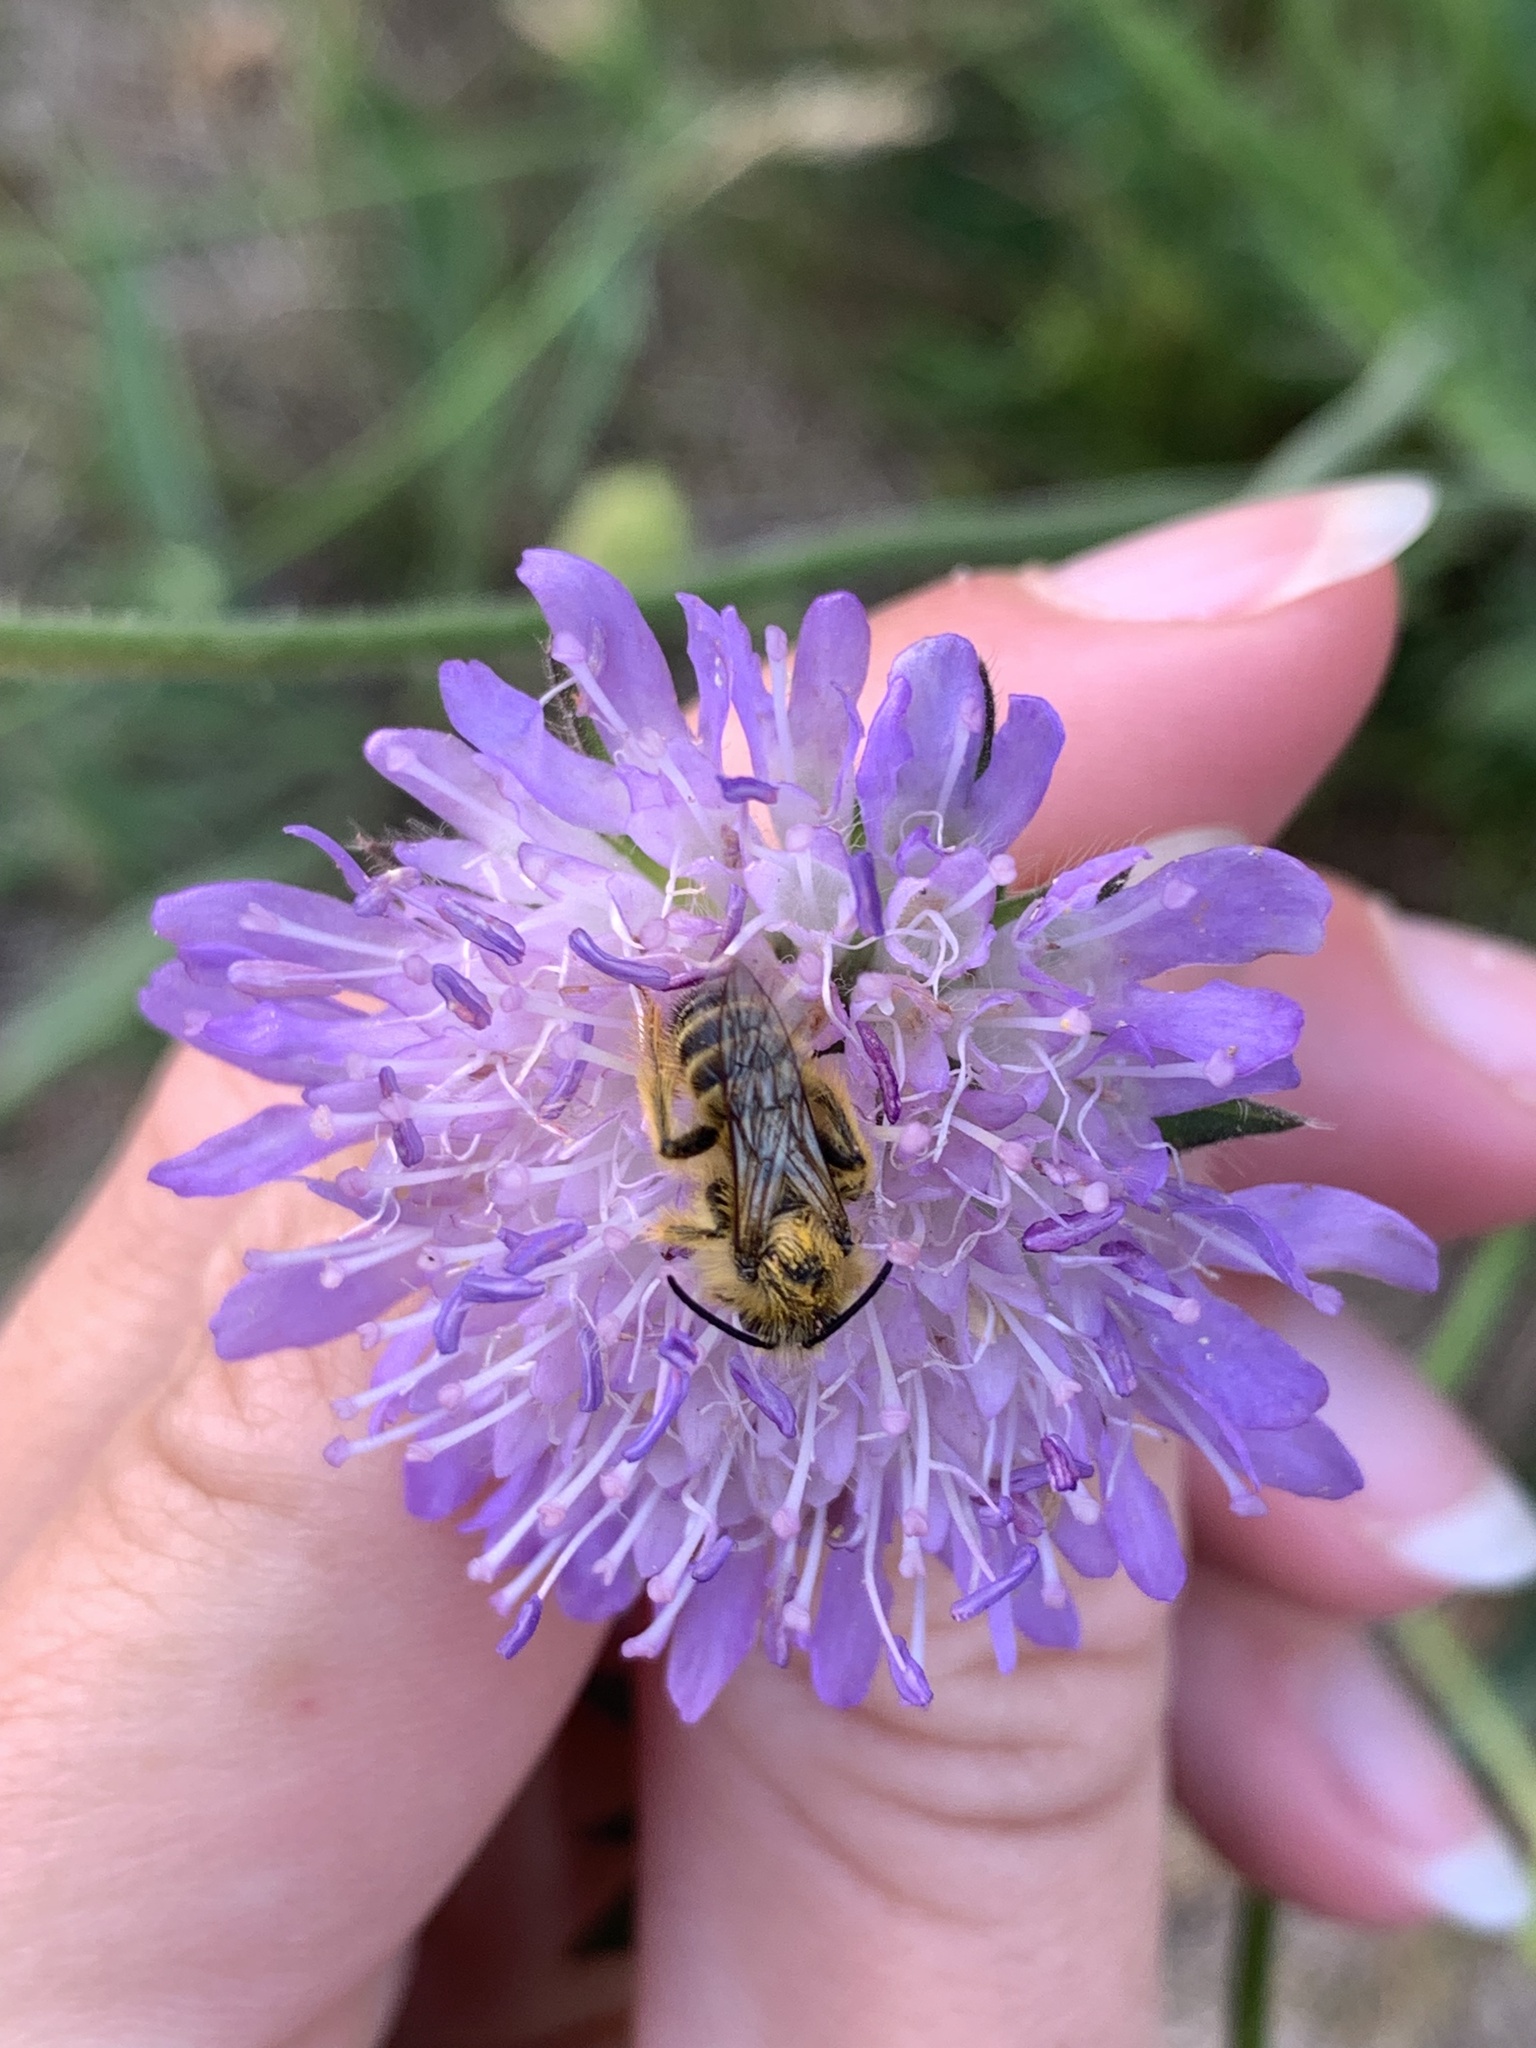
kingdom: Animalia
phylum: Arthropoda
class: Insecta
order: Hymenoptera
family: Melittidae
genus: Dasypoda
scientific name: Dasypoda hirtipes
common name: Pantaloon bee
